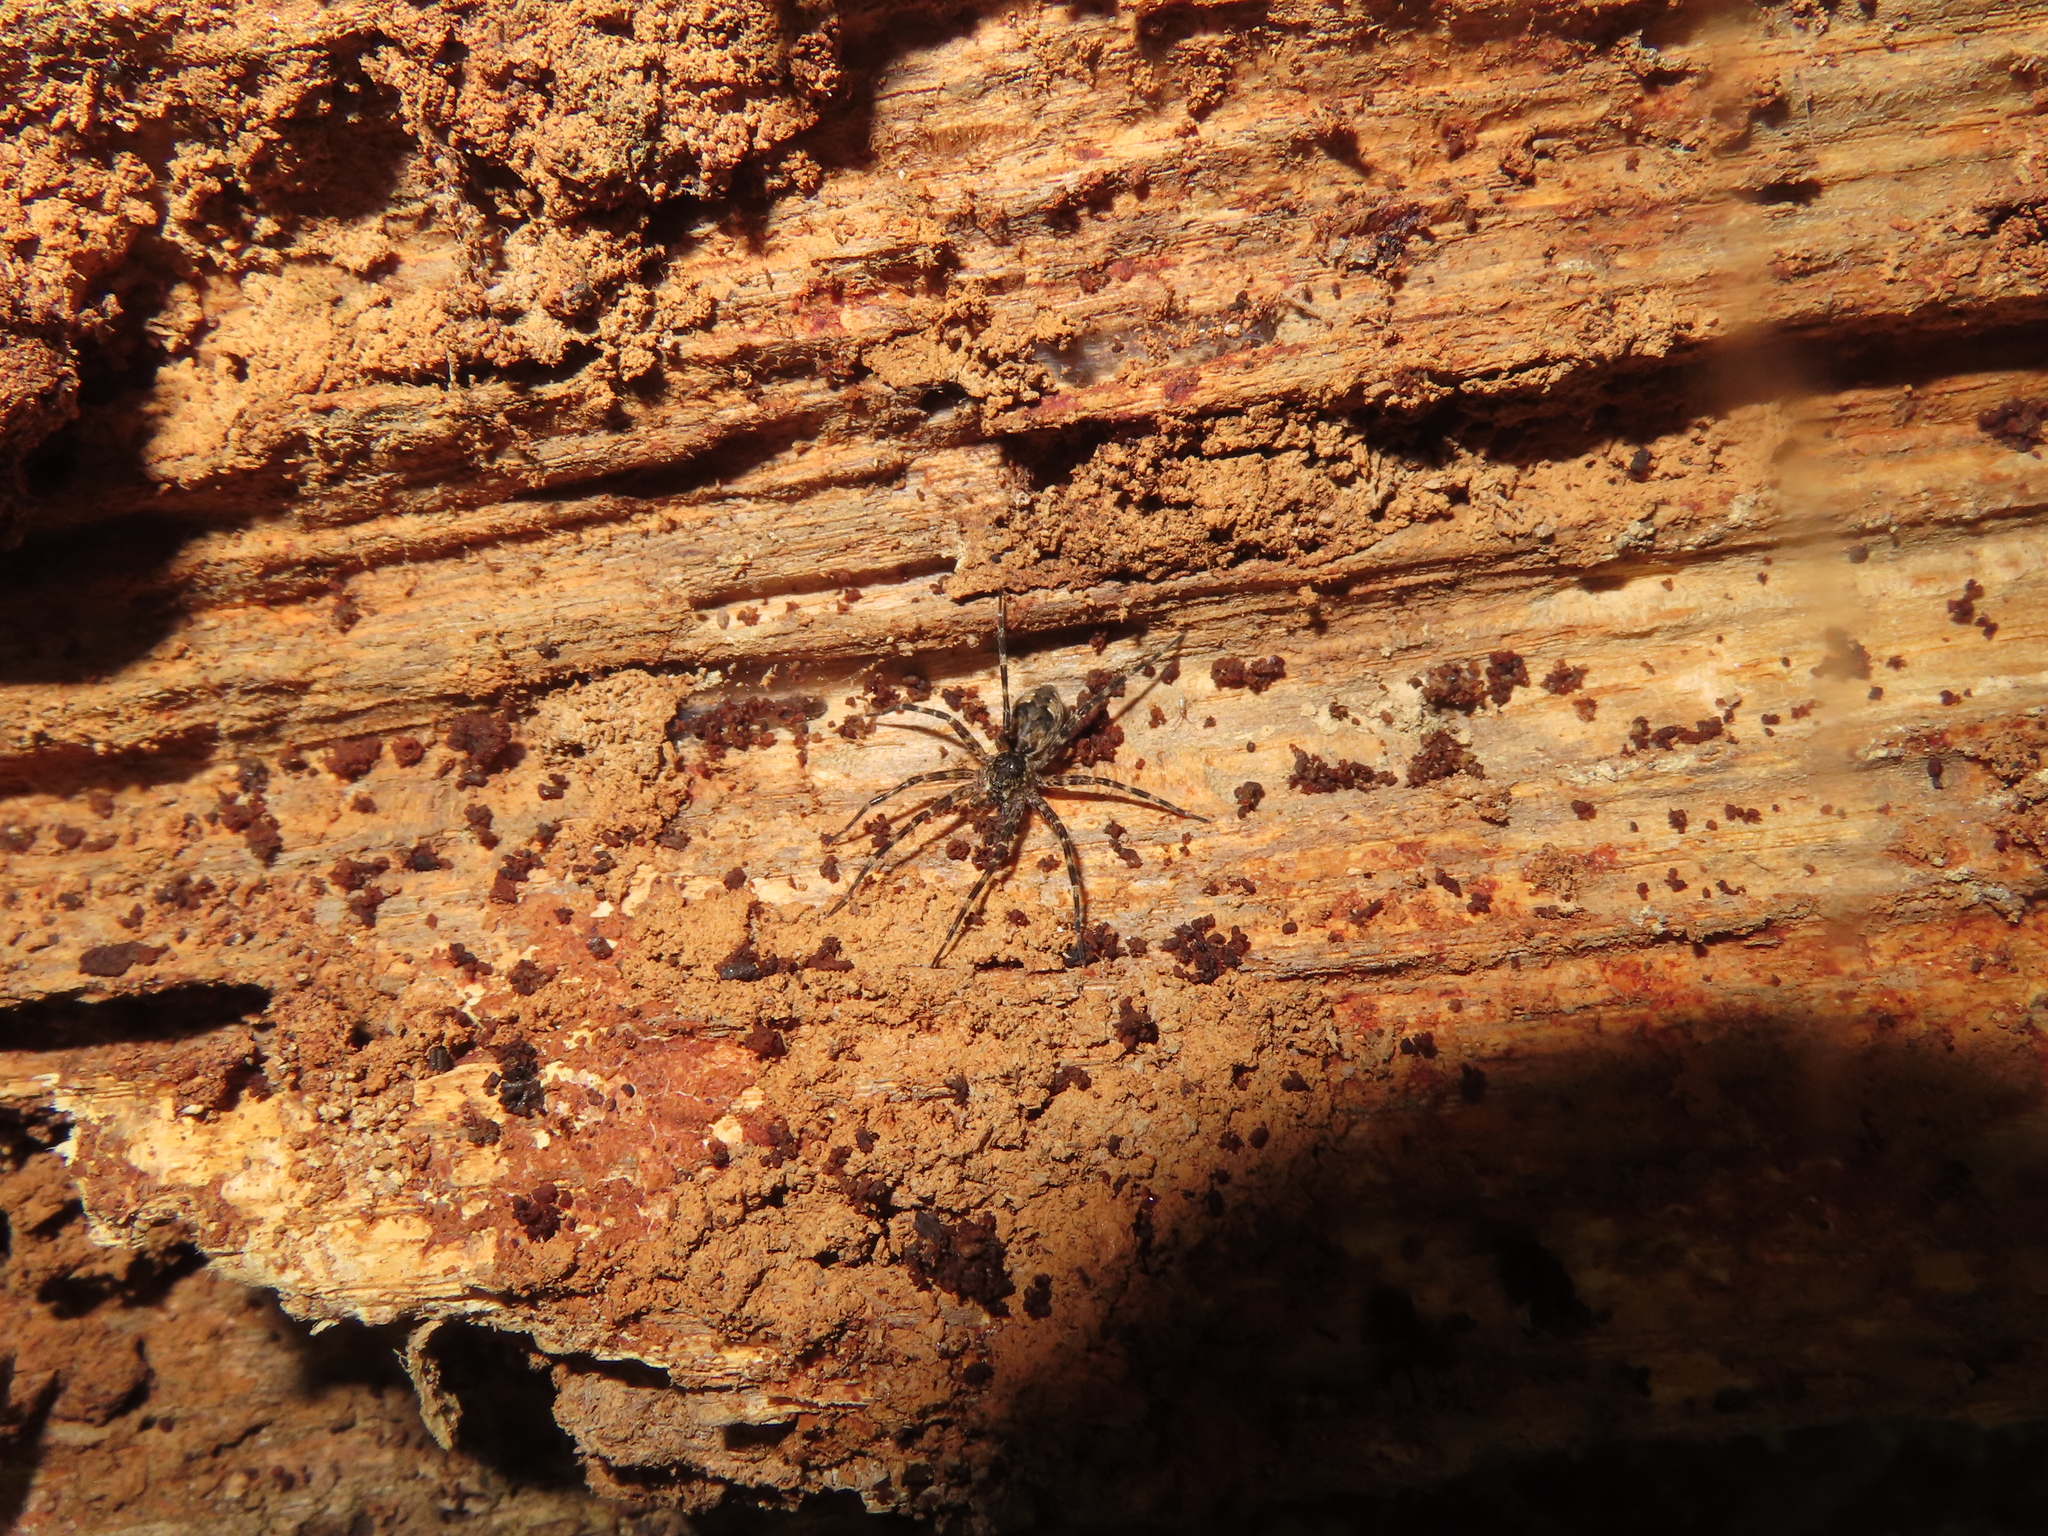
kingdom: Animalia
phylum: Arthropoda
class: Arachnida
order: Araneae
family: Pisauridae
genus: Dolomedes
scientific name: Dolomedes tenebrosus
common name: Dark fishing spider
